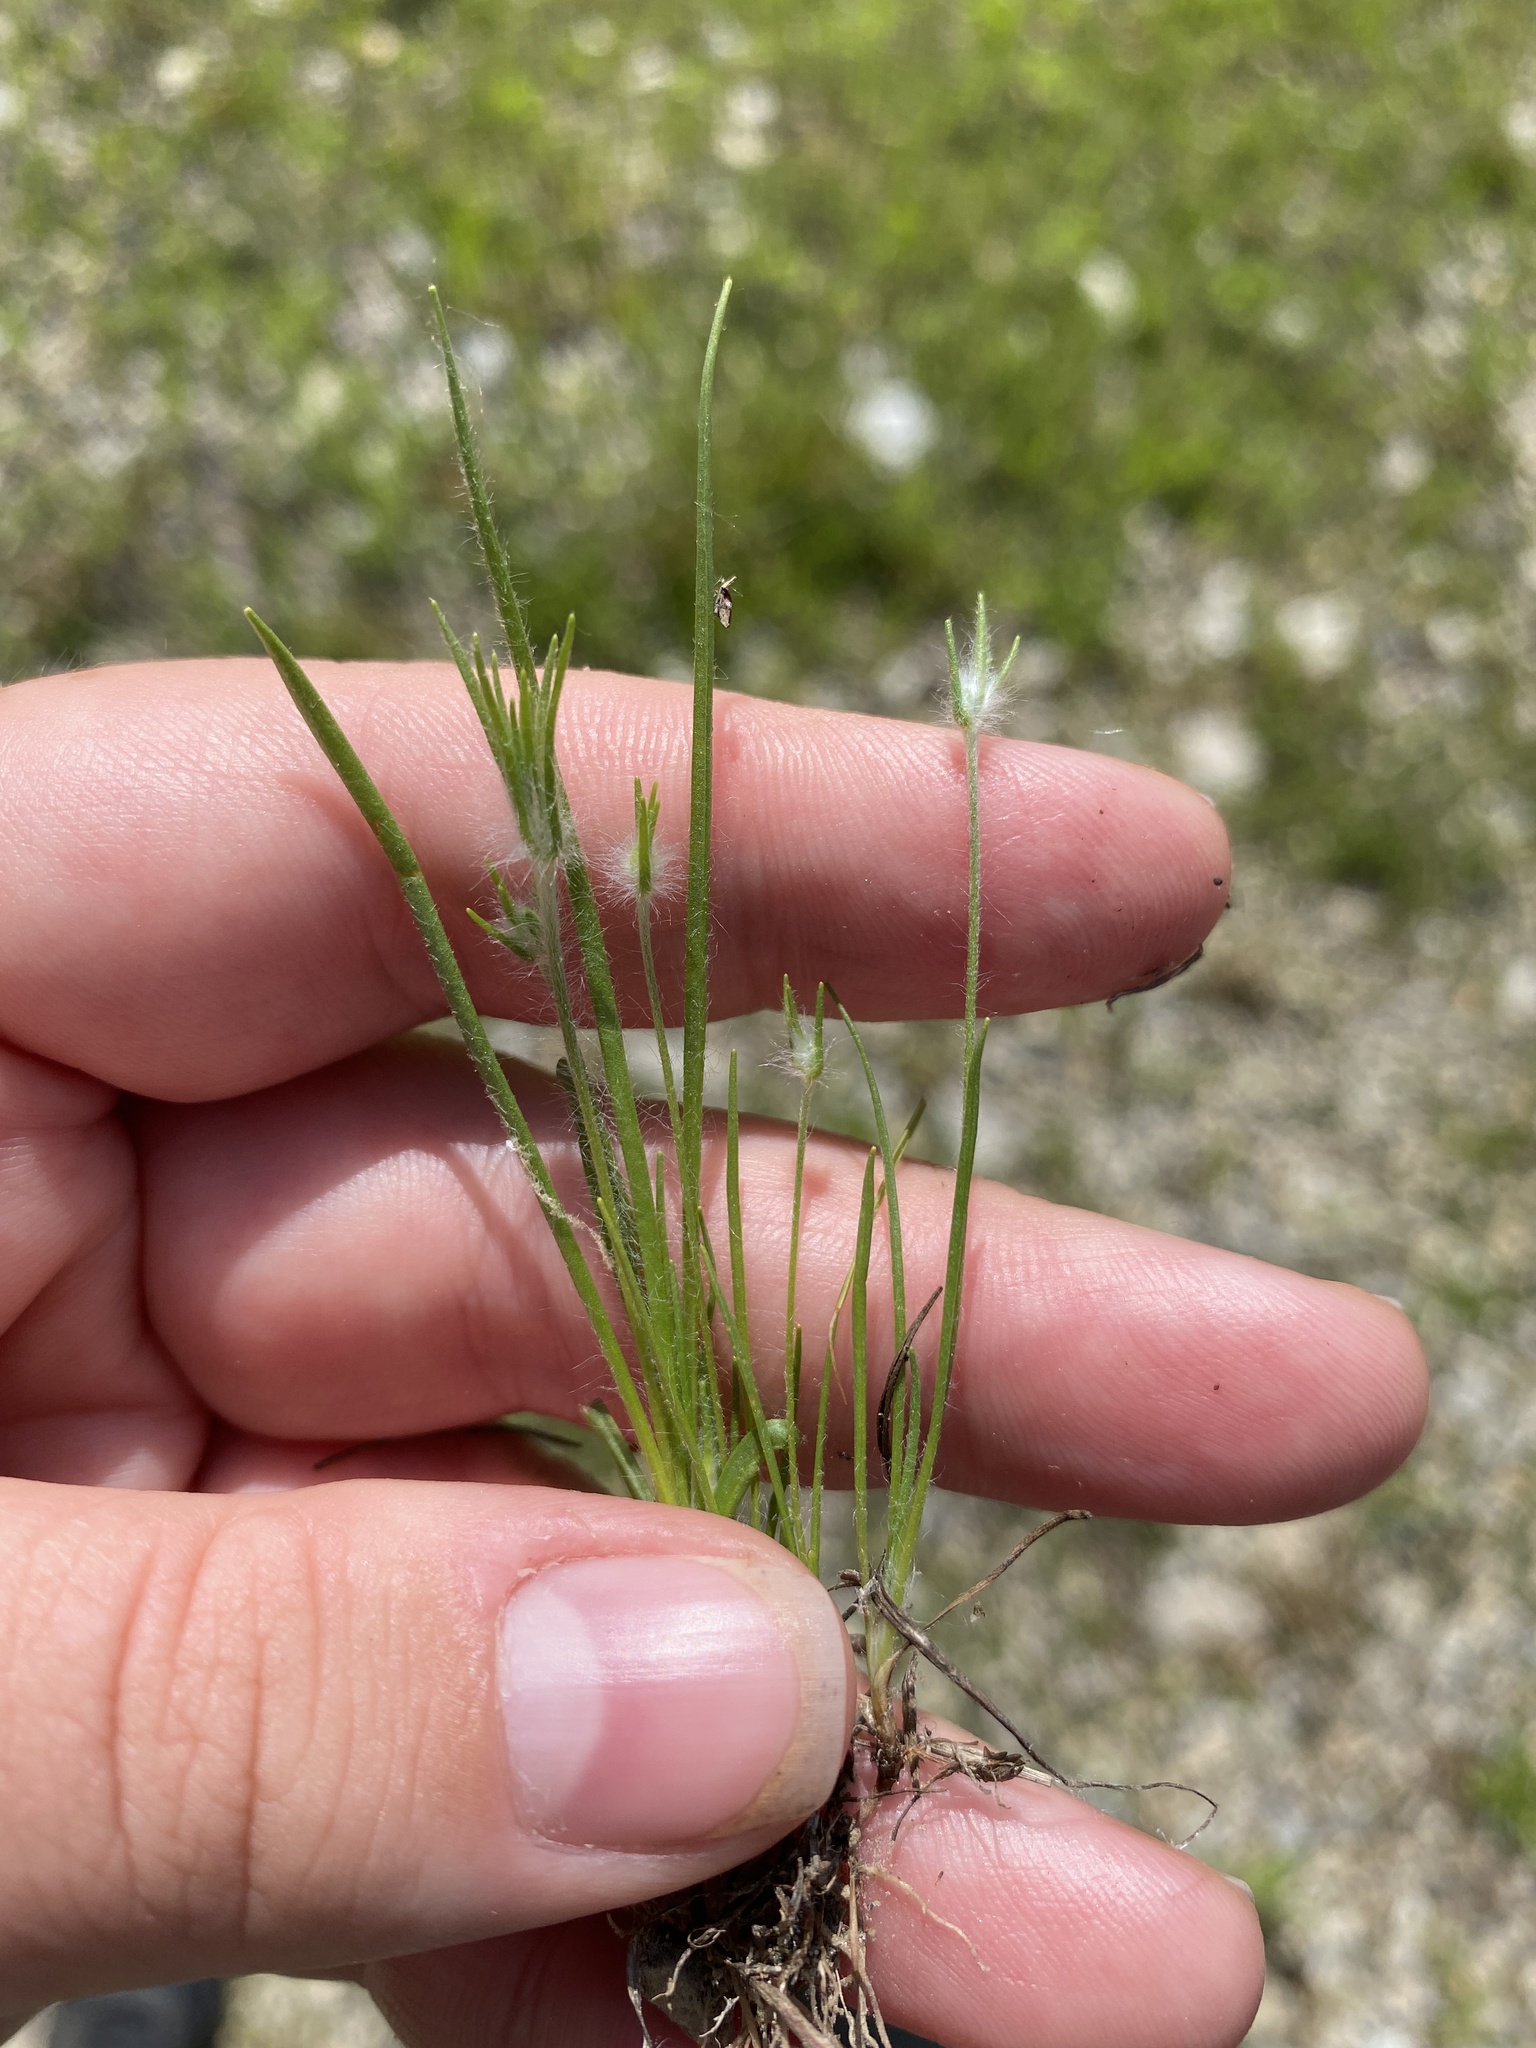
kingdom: Plantae
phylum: Tracheophyta
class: Magnoliopsida
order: Lamiales
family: Plantaginaceae
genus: Plantago
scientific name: Plantago aristata
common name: Bracted plantain
